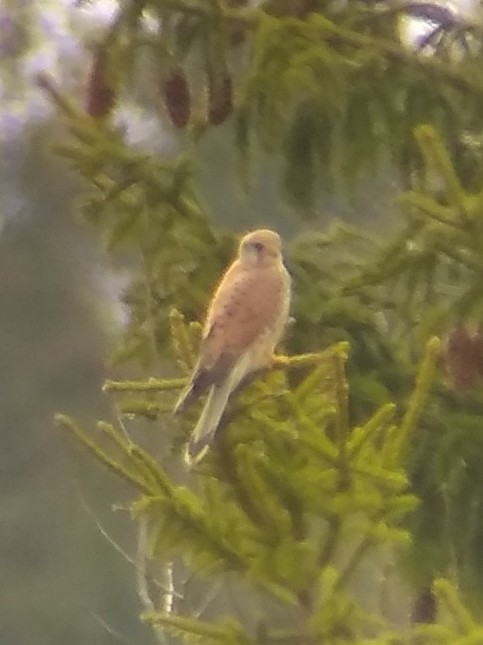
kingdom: Animalia
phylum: Chordata
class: Aves
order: Falconiformes
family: Falconidae
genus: Falco
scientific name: Falco tinnunculus
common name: Common kestrel
